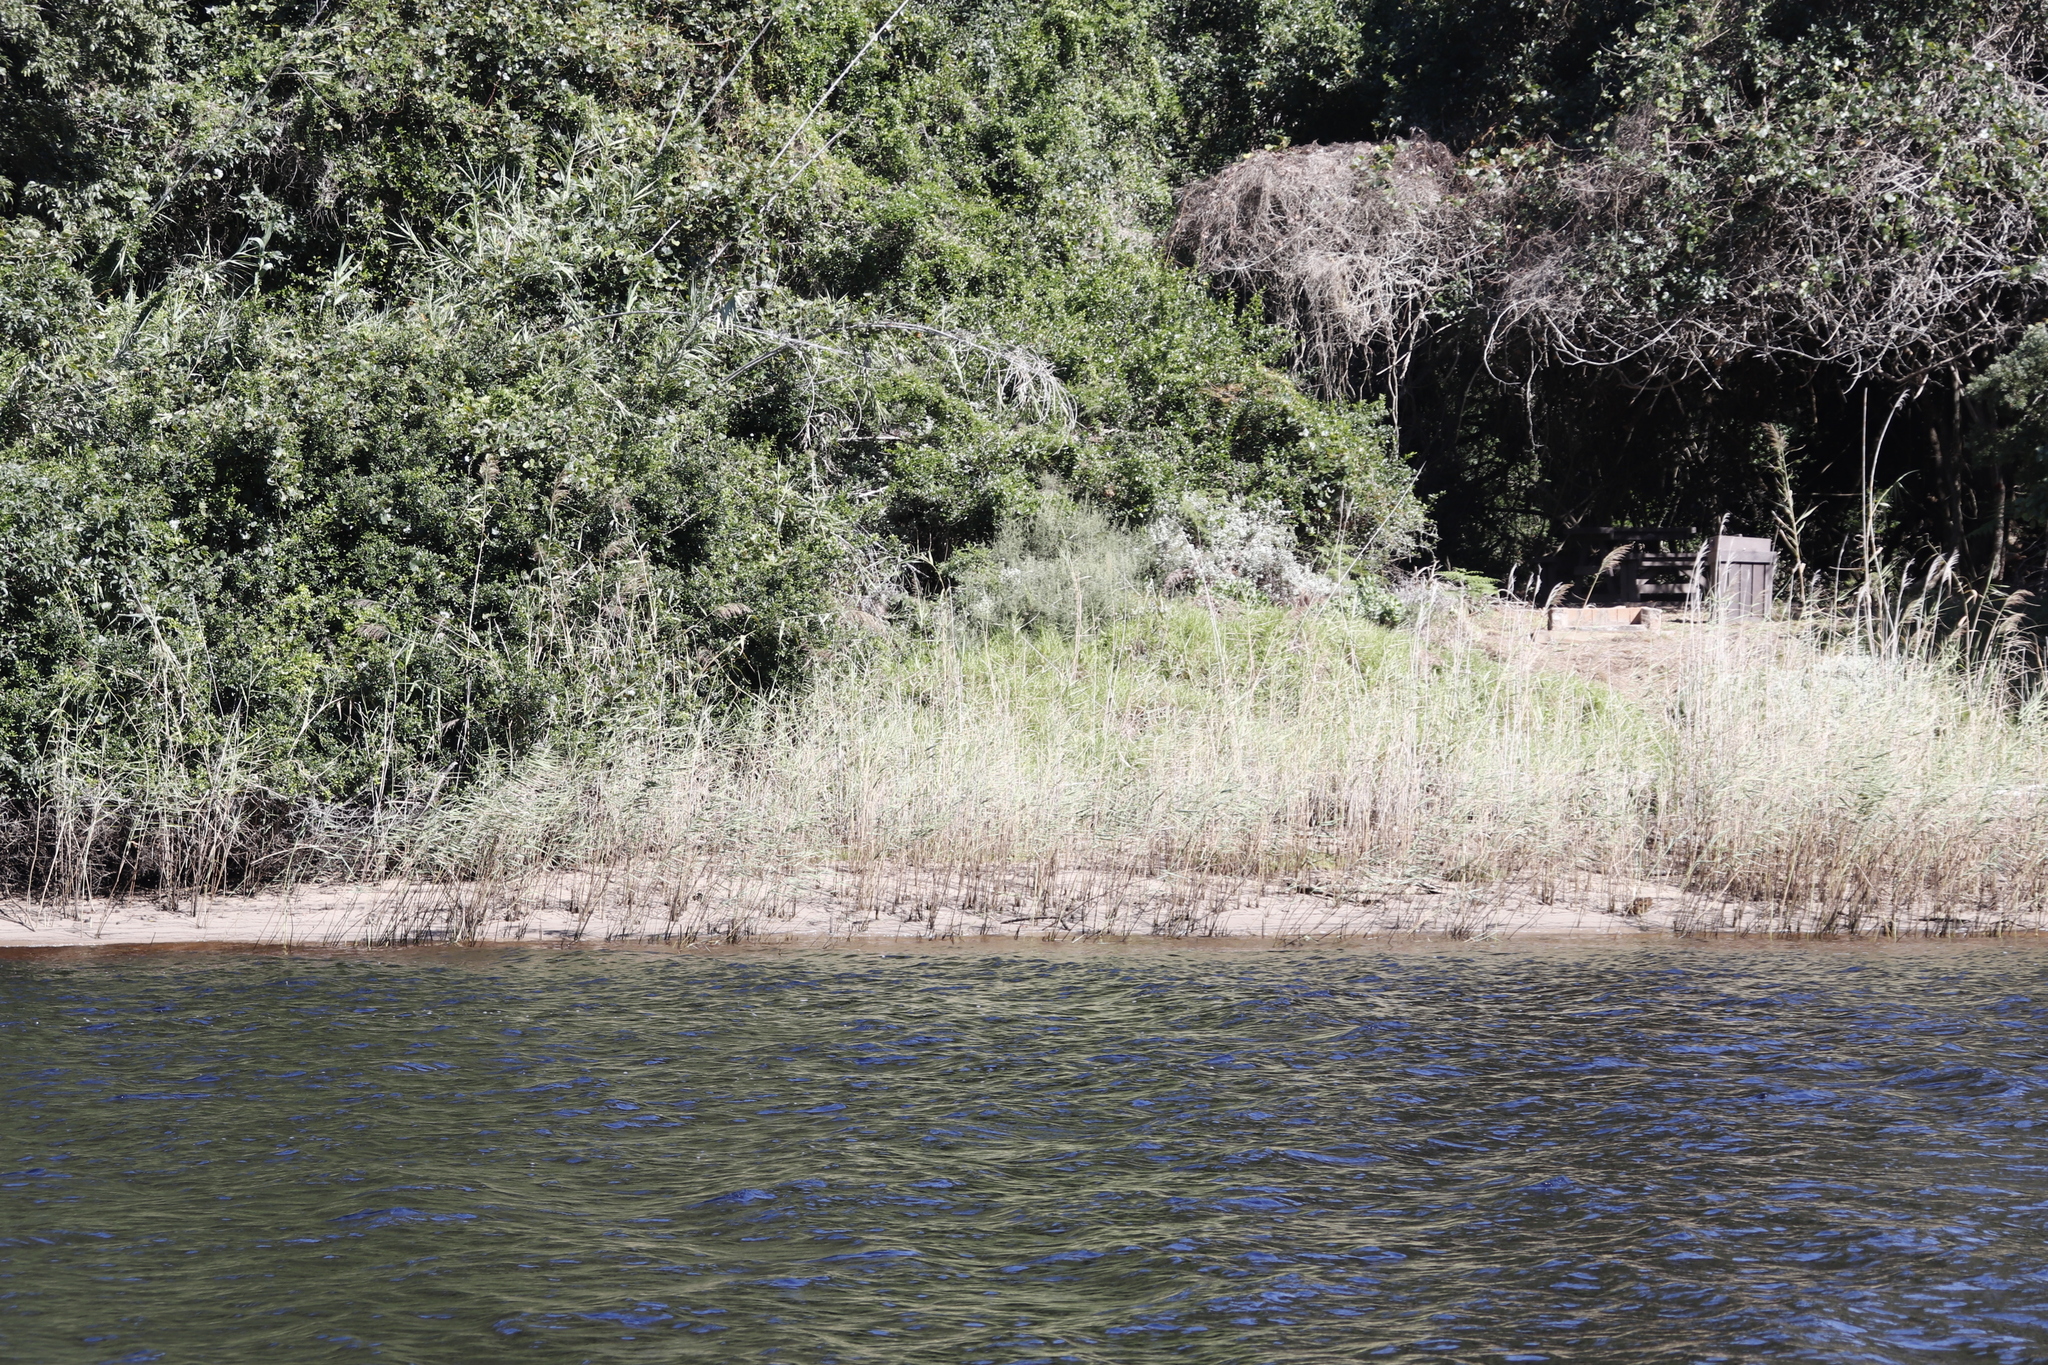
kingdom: Plantae
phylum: Tracheophyta
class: Liliopsida
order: Poales
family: Poaceae
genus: Phragmites
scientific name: Phragmites australis
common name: Common reed
